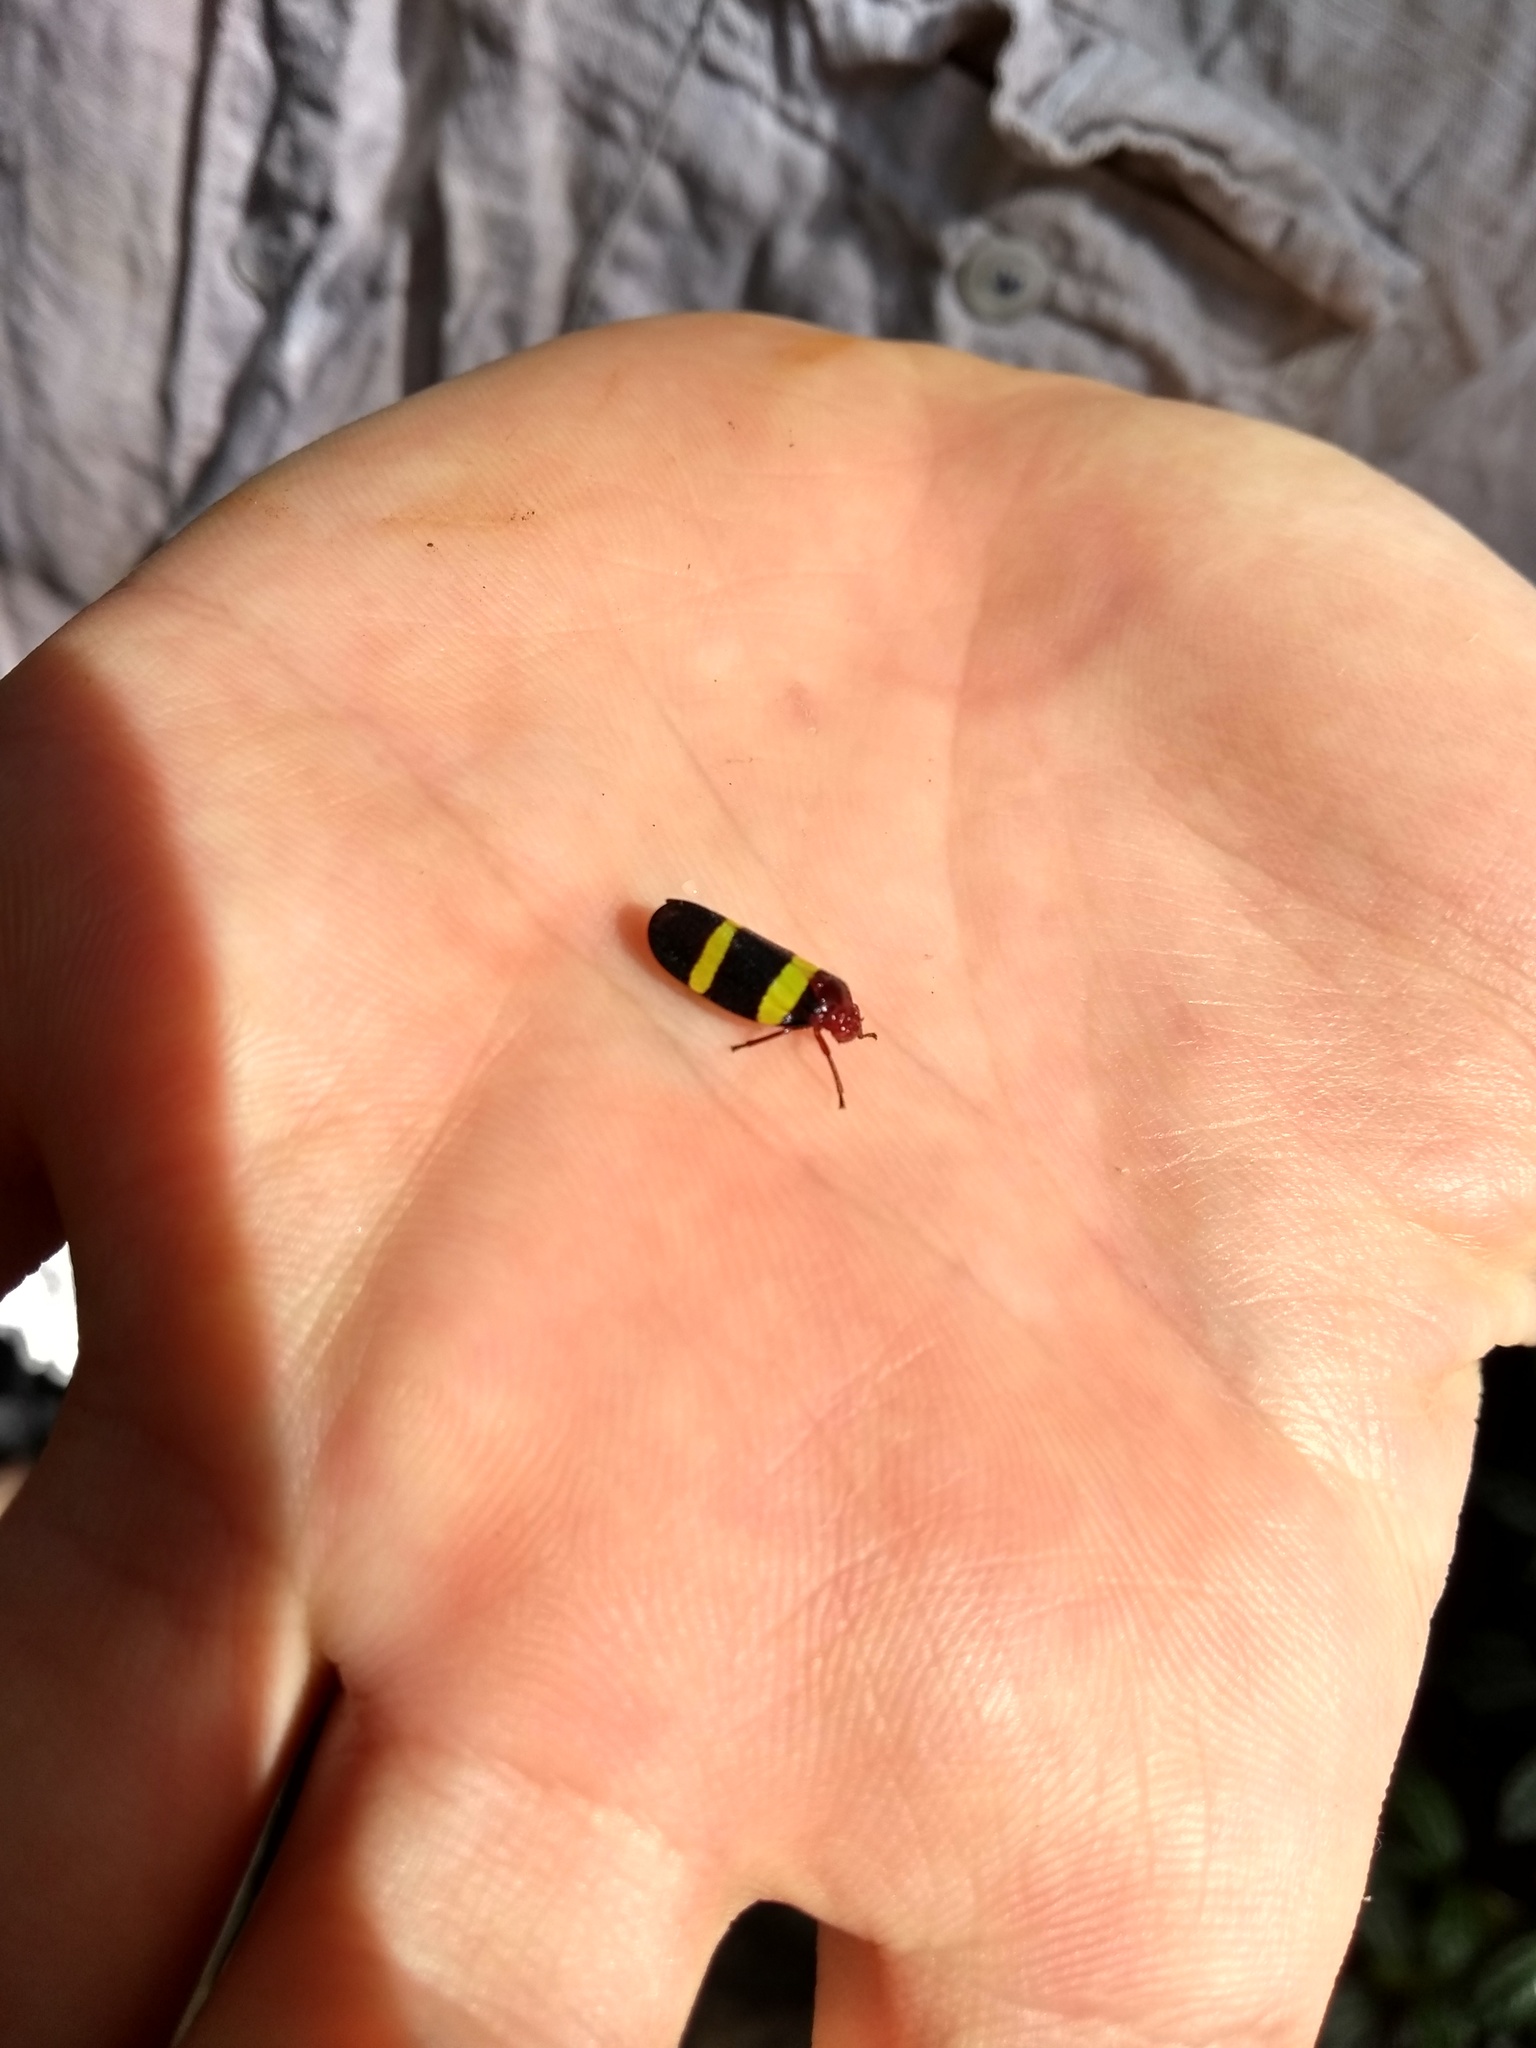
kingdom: Animalia
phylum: Arthropoda
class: Insecta
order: Hemiptera
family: Cercopidae
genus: Sphenorhina
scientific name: Sphenorhina rubra
